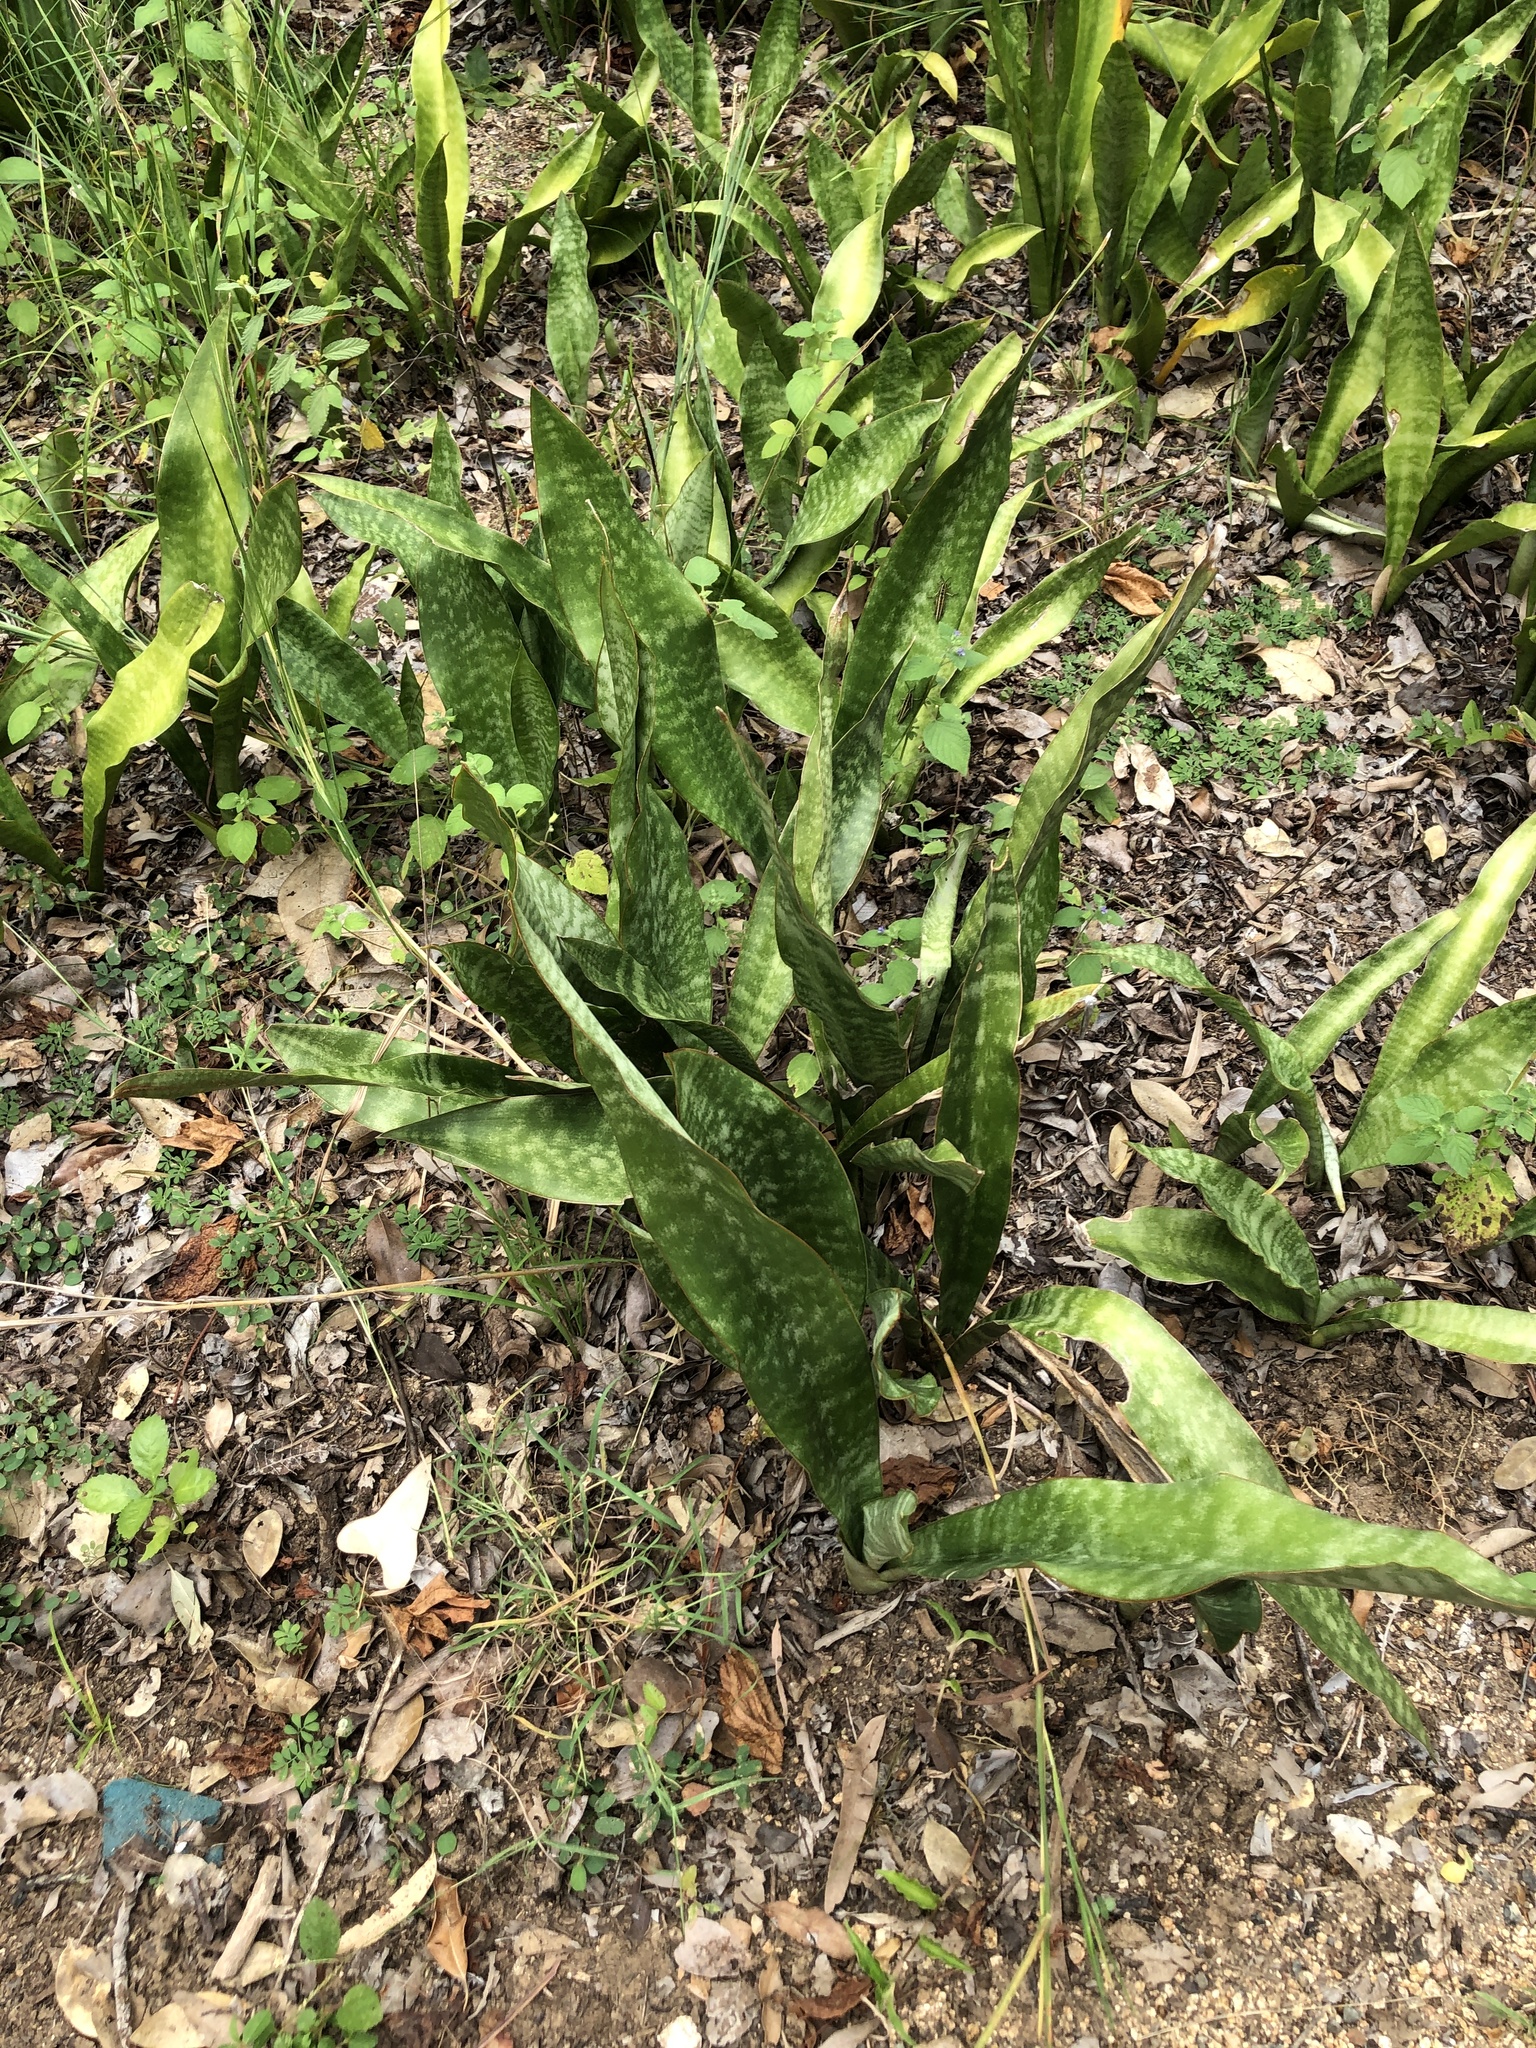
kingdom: Plantae
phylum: Tracheophyta
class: Liliopsida
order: Asparagales
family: Asparagaceae
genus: Dracaena
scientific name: Dracaena trifasciata
